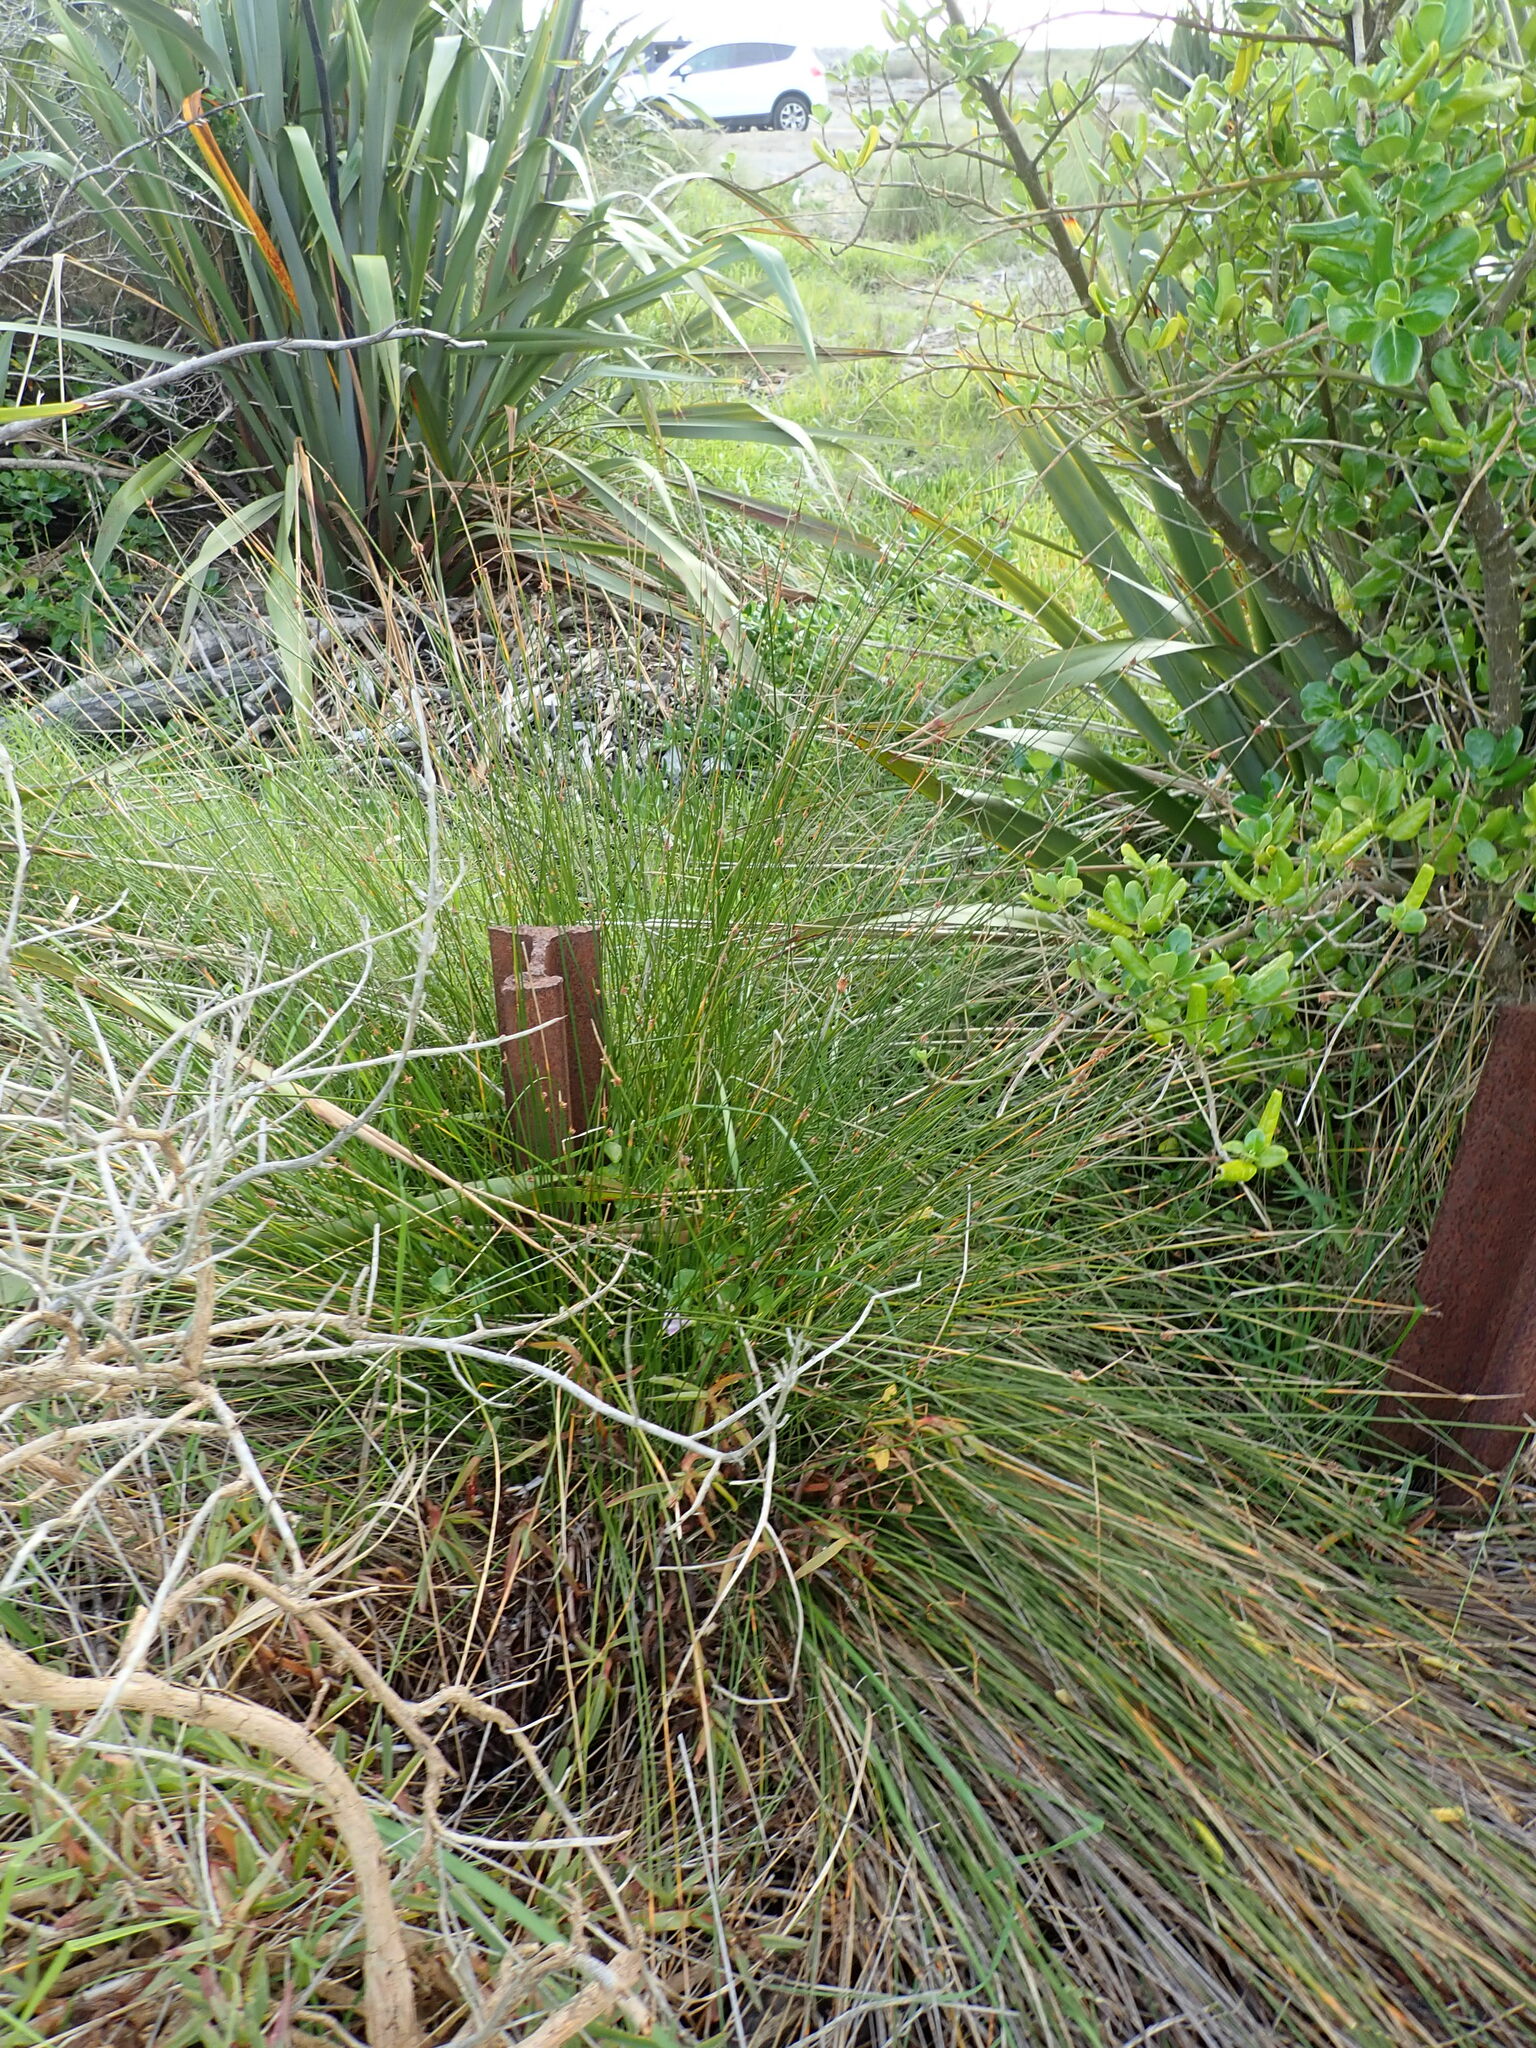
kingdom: Plantae
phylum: Tracheophyta
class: Liliopsida
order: Poales
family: Cyperaceae
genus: Ficinia
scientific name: Ficinia nodosa
